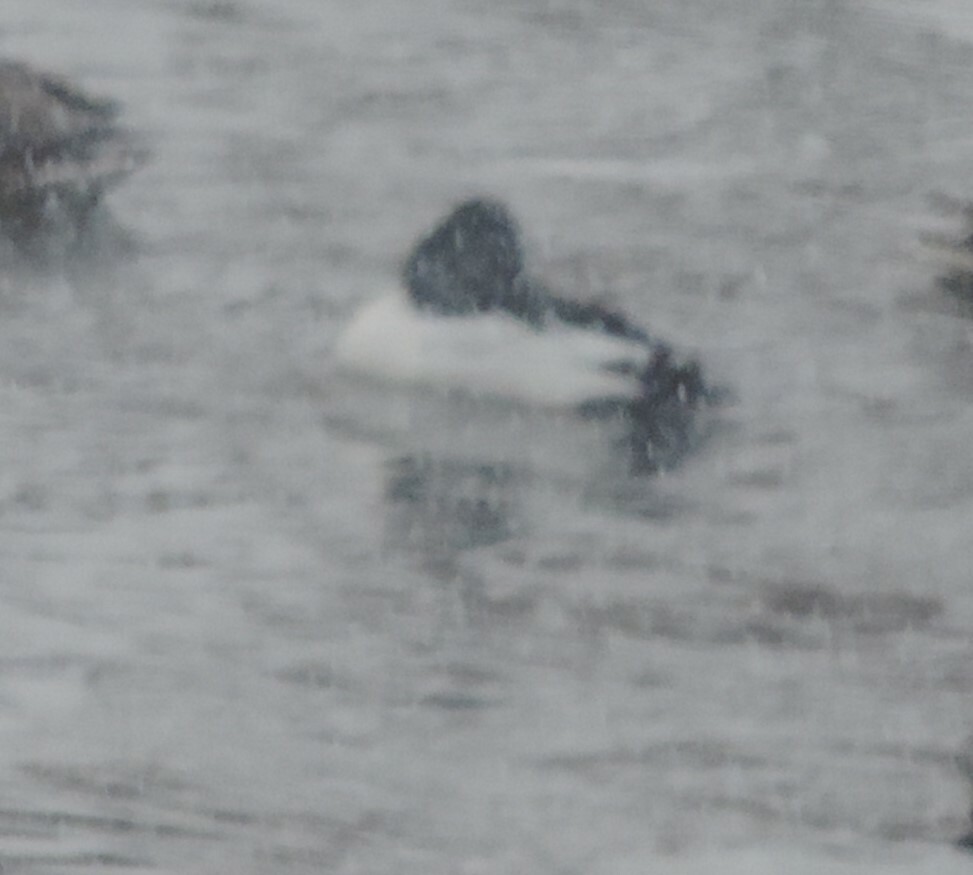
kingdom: Animalia
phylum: Chordata
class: Aves
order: Anseriformes
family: Anatidae
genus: Bucephala
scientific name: Bucephala clangula
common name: Common goldeneye
